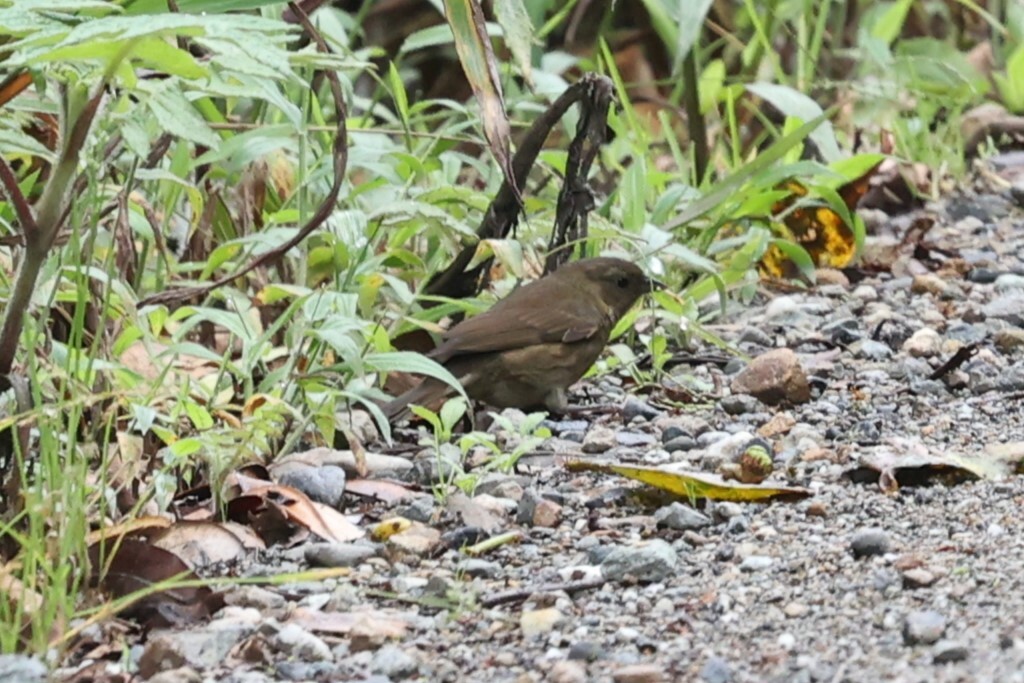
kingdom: Animalia
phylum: Chordata
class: Aves
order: Passeriformes
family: Thraupidae
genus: Haplospiza
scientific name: Haplospiza rustica
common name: Slaty finch
